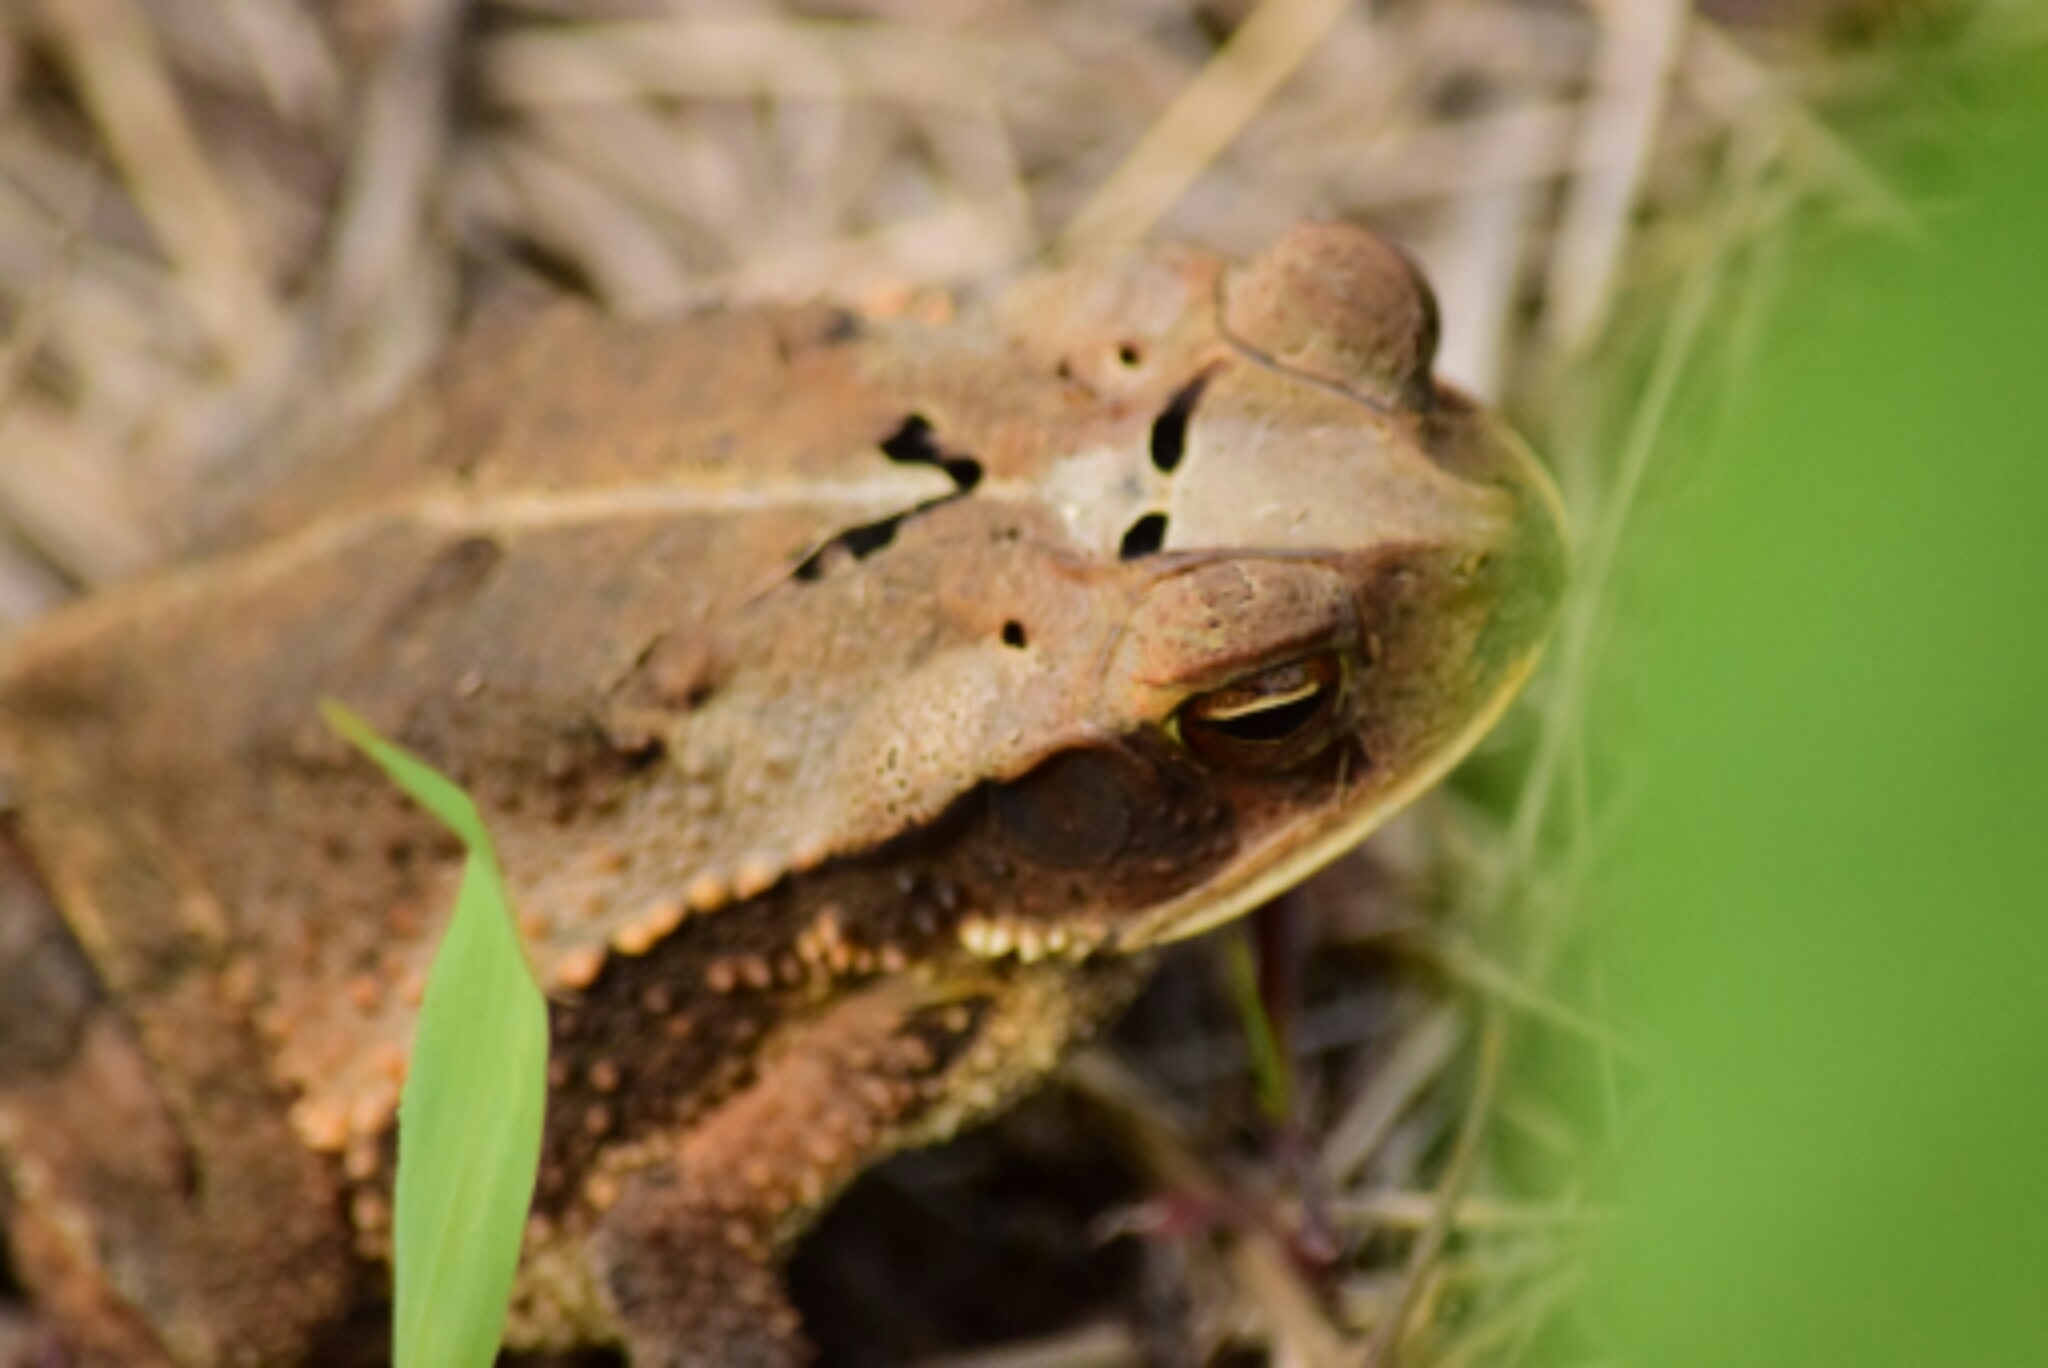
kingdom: Animalia
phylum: Chordata
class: Amphibia
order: Anura
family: Bufonidae
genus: Incilius
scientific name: Incilius valliceps
